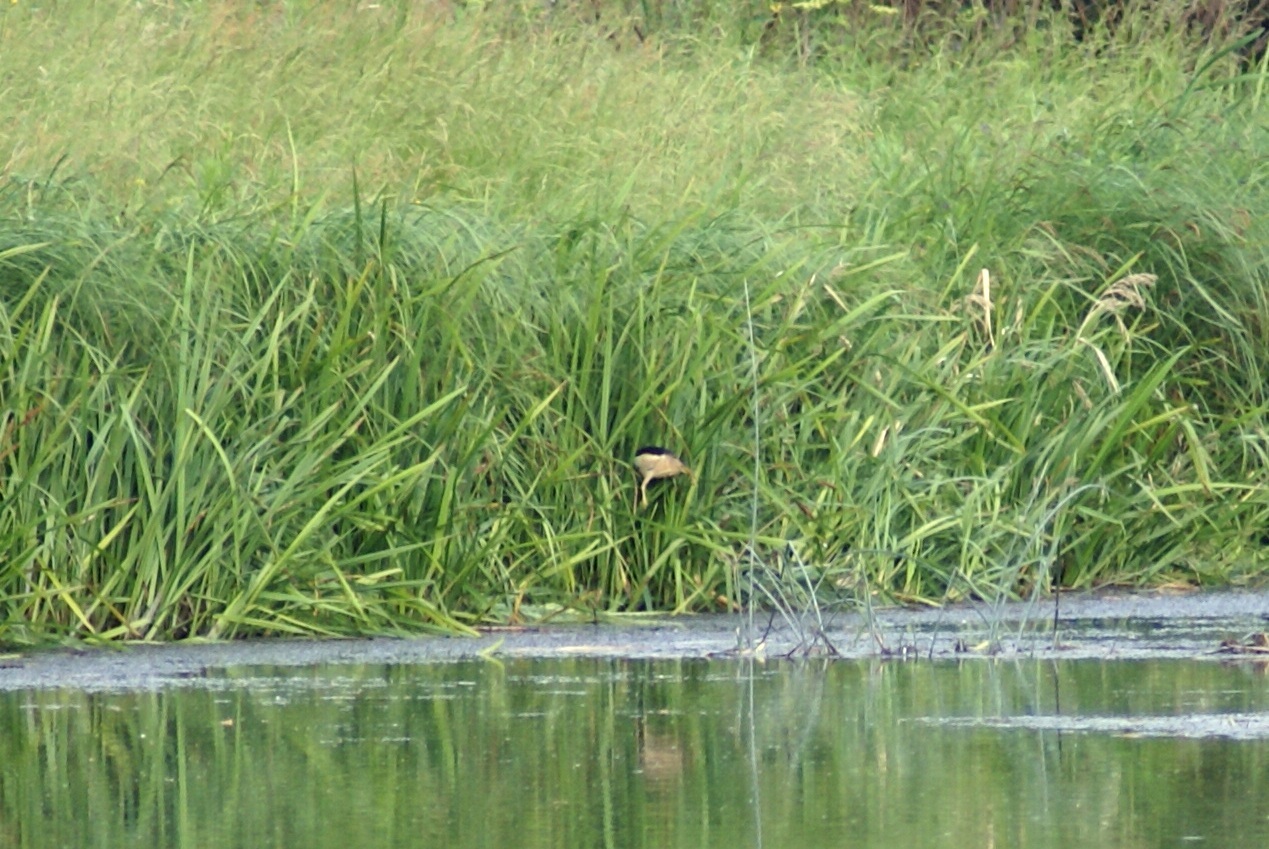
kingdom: Animalia
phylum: Chordata
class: Aves
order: Pelecaniformes
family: Ardeidae
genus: Ixobrychus
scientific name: Ixobrychus minutus
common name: Little bittern
